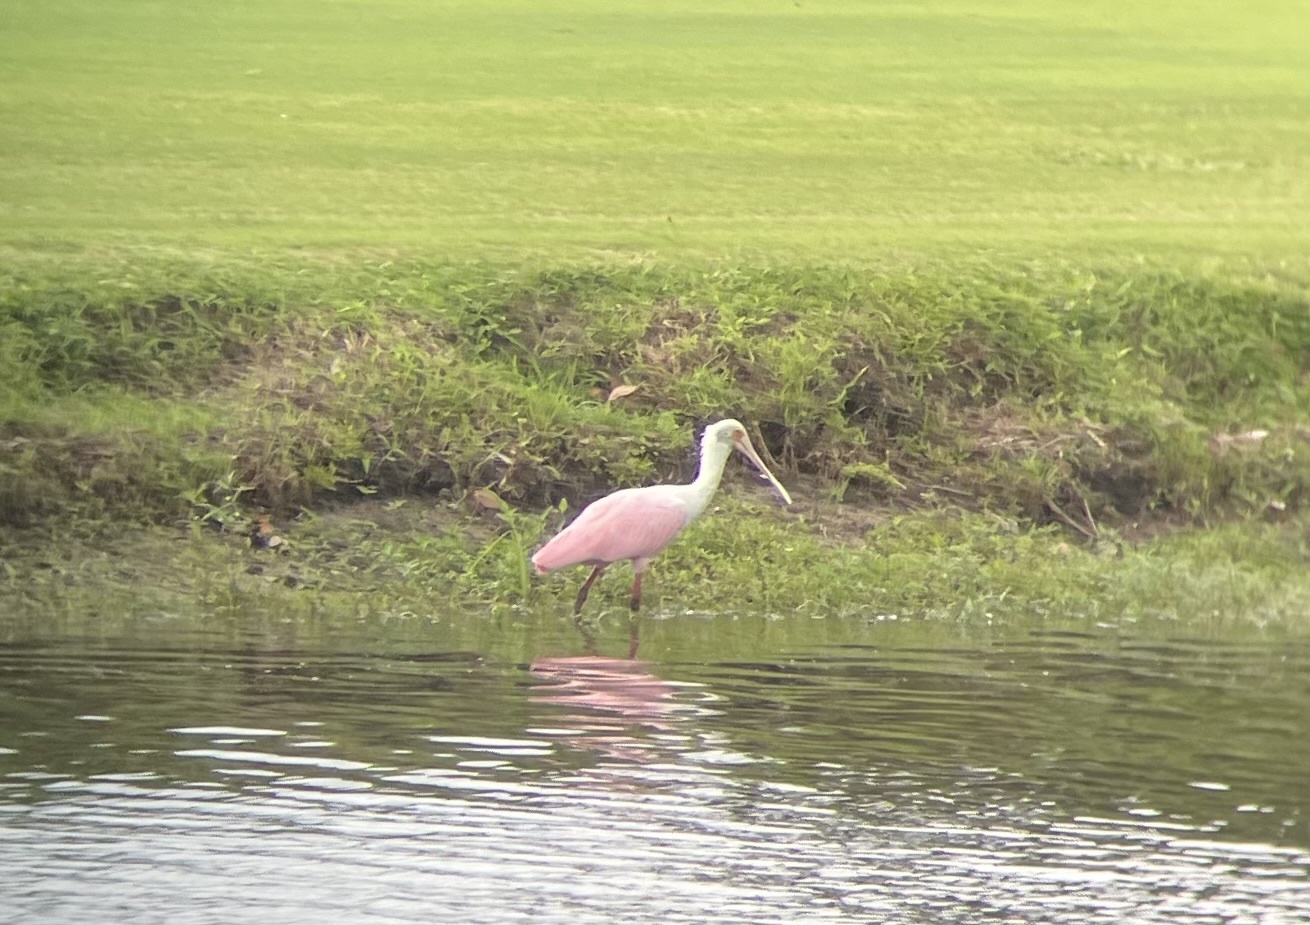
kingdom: Animalia
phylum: Chordata
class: Aves
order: Pelecaniformes
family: Threskiornithidae
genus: Platalea
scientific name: Platalea ajaja
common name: Roseate spoonbill
